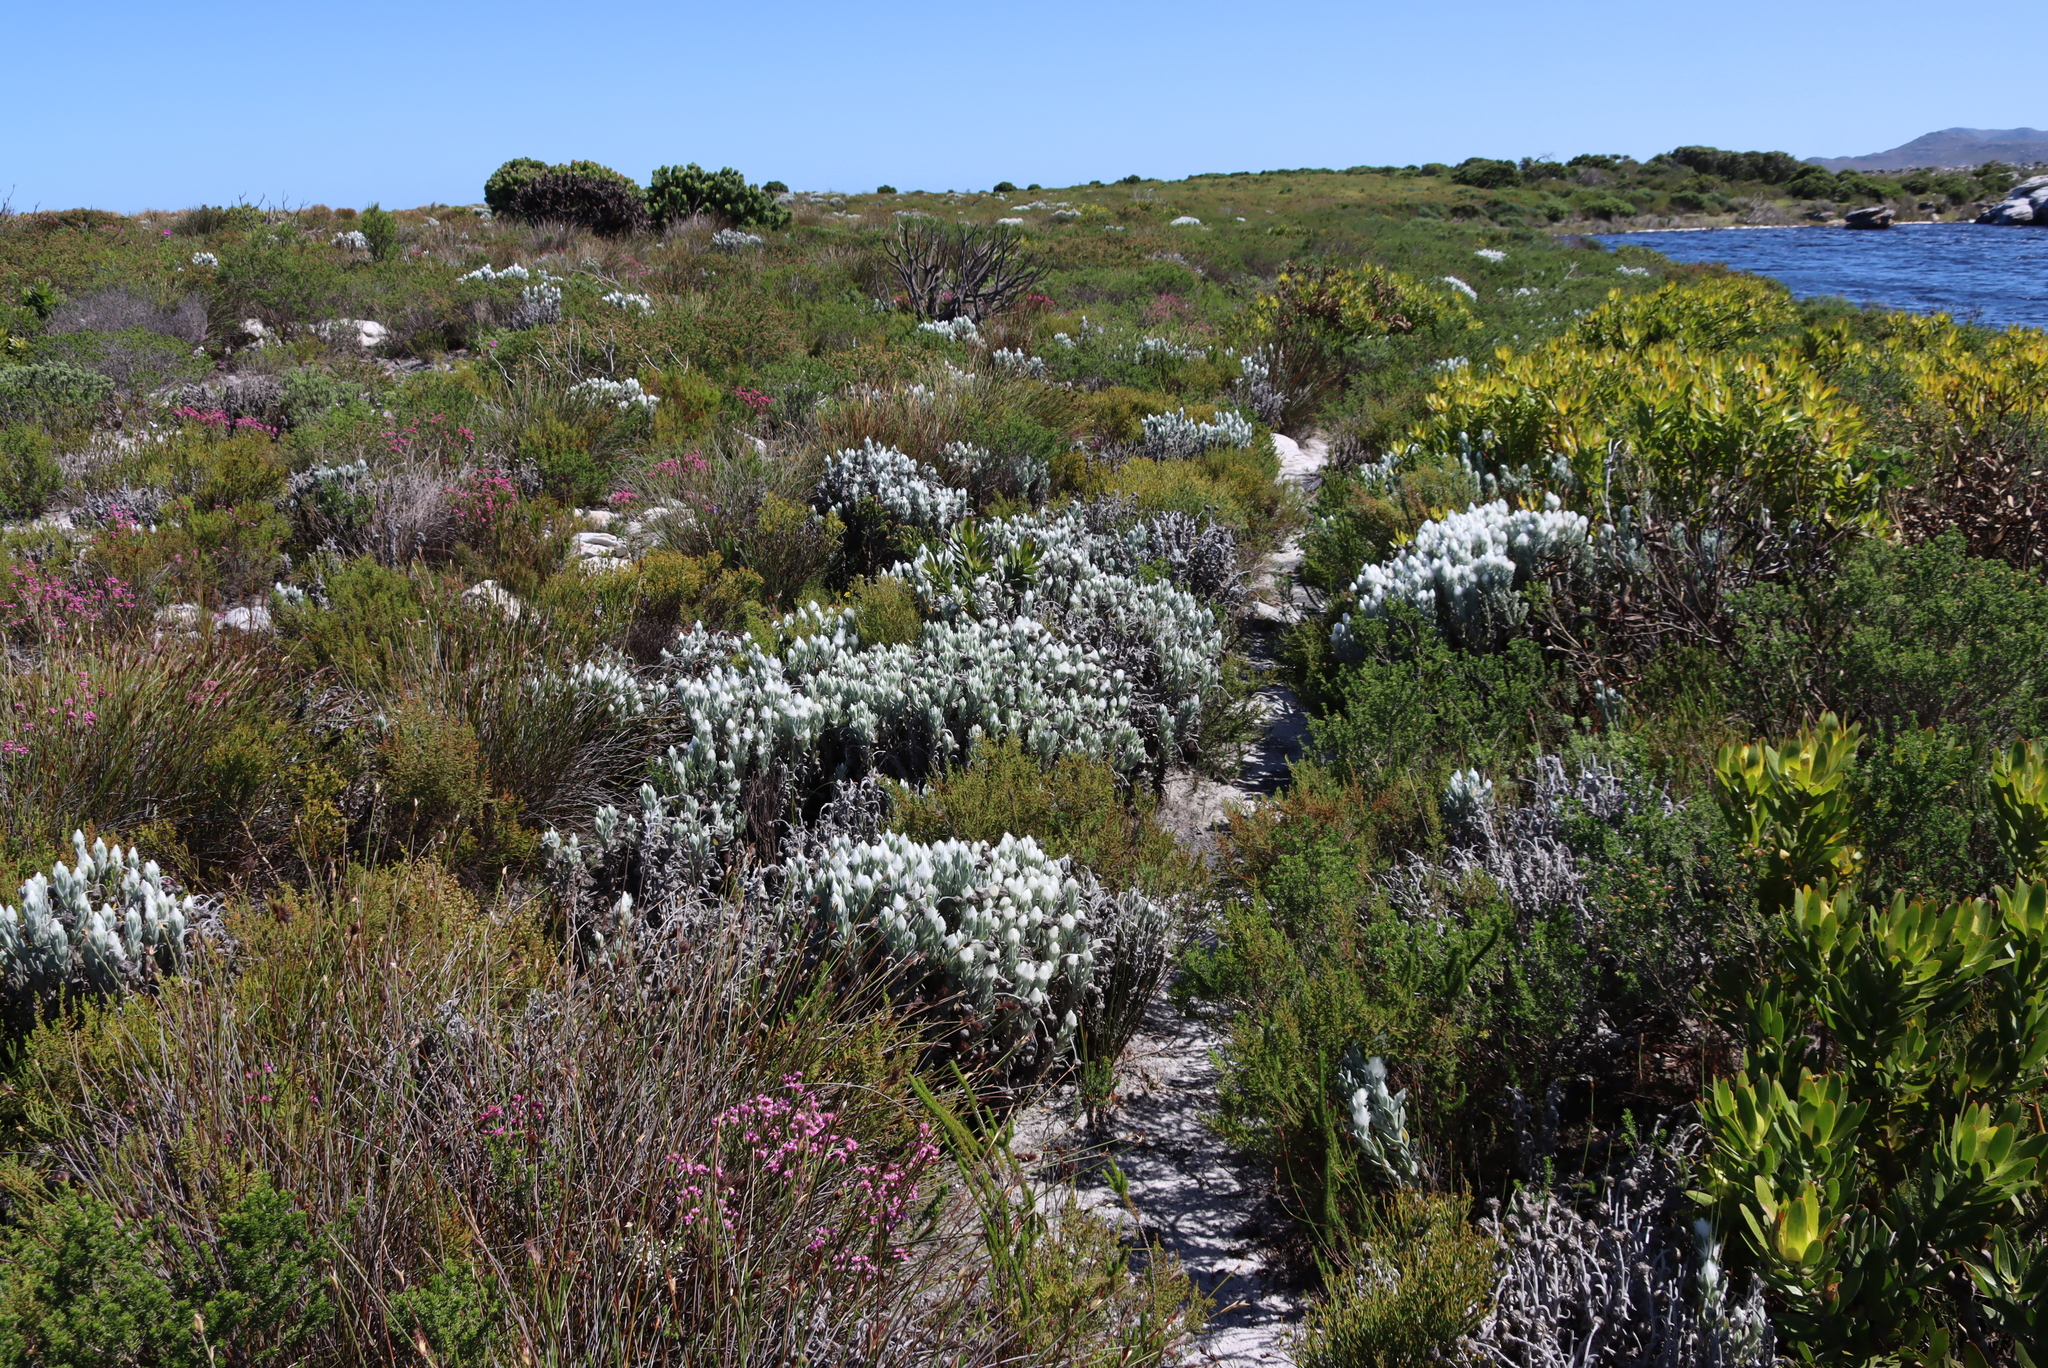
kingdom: Plantae
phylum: Tracheophyta
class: Magnoliopsida
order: Asterales
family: Asteraceae
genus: Syncarpha
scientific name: Syncarpha vestita
